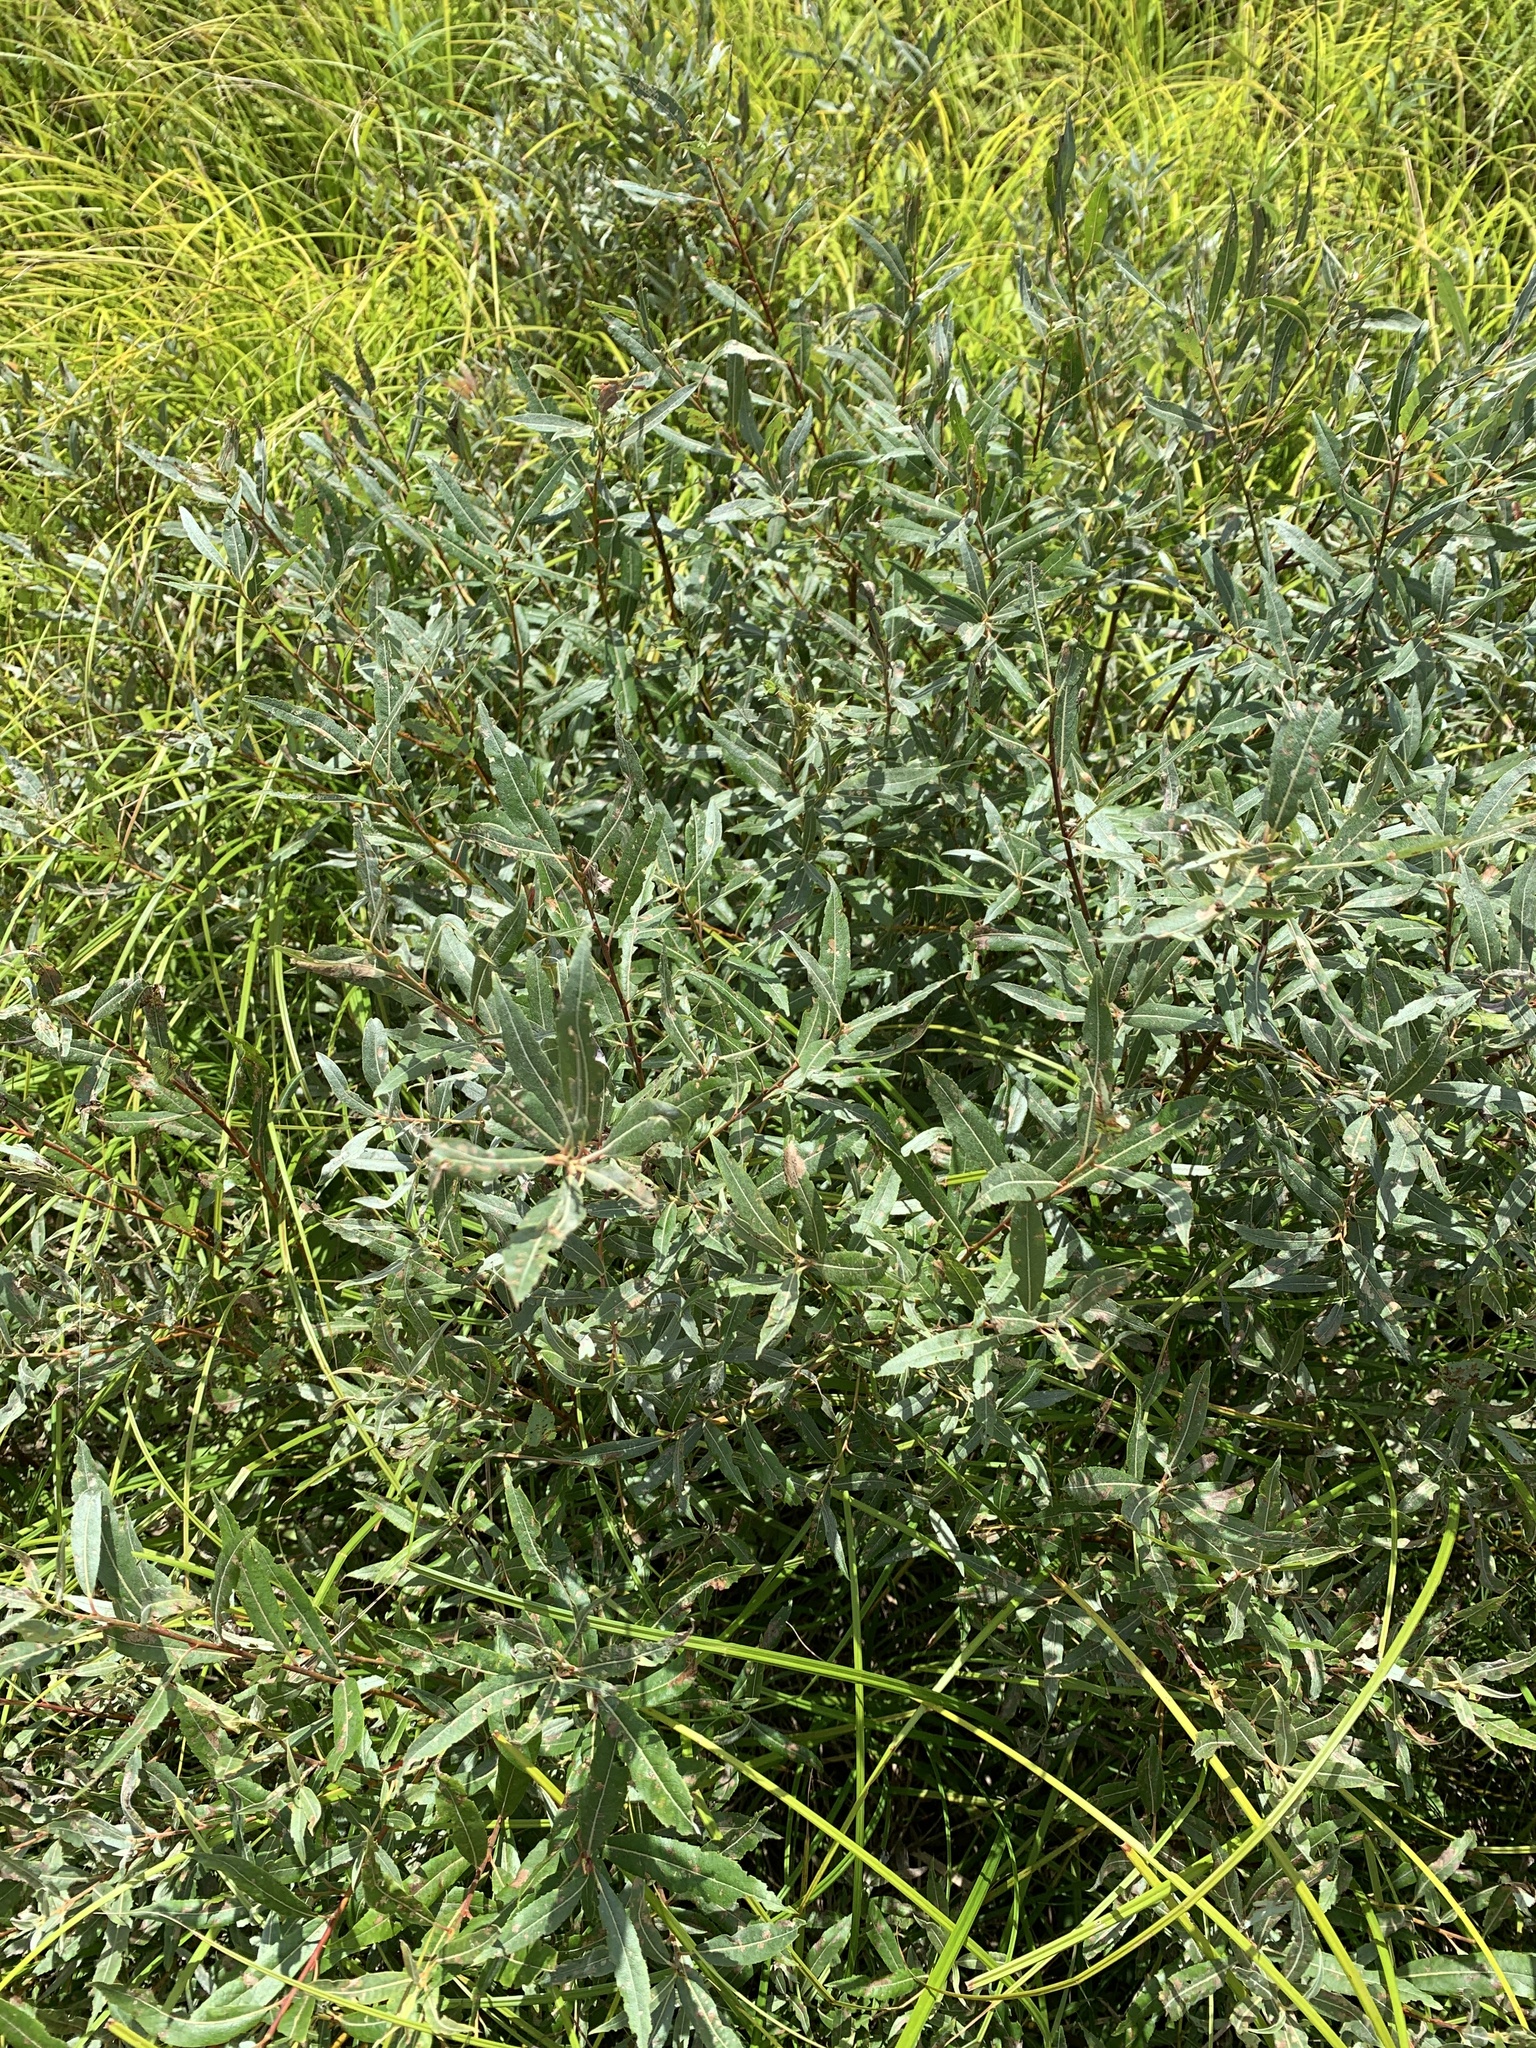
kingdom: Plantae
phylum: Tracheophyta
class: Magnoliopsida
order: Malpighiales
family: Salicaceae
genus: Salix
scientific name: Salix petiolaris
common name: Slender willow
